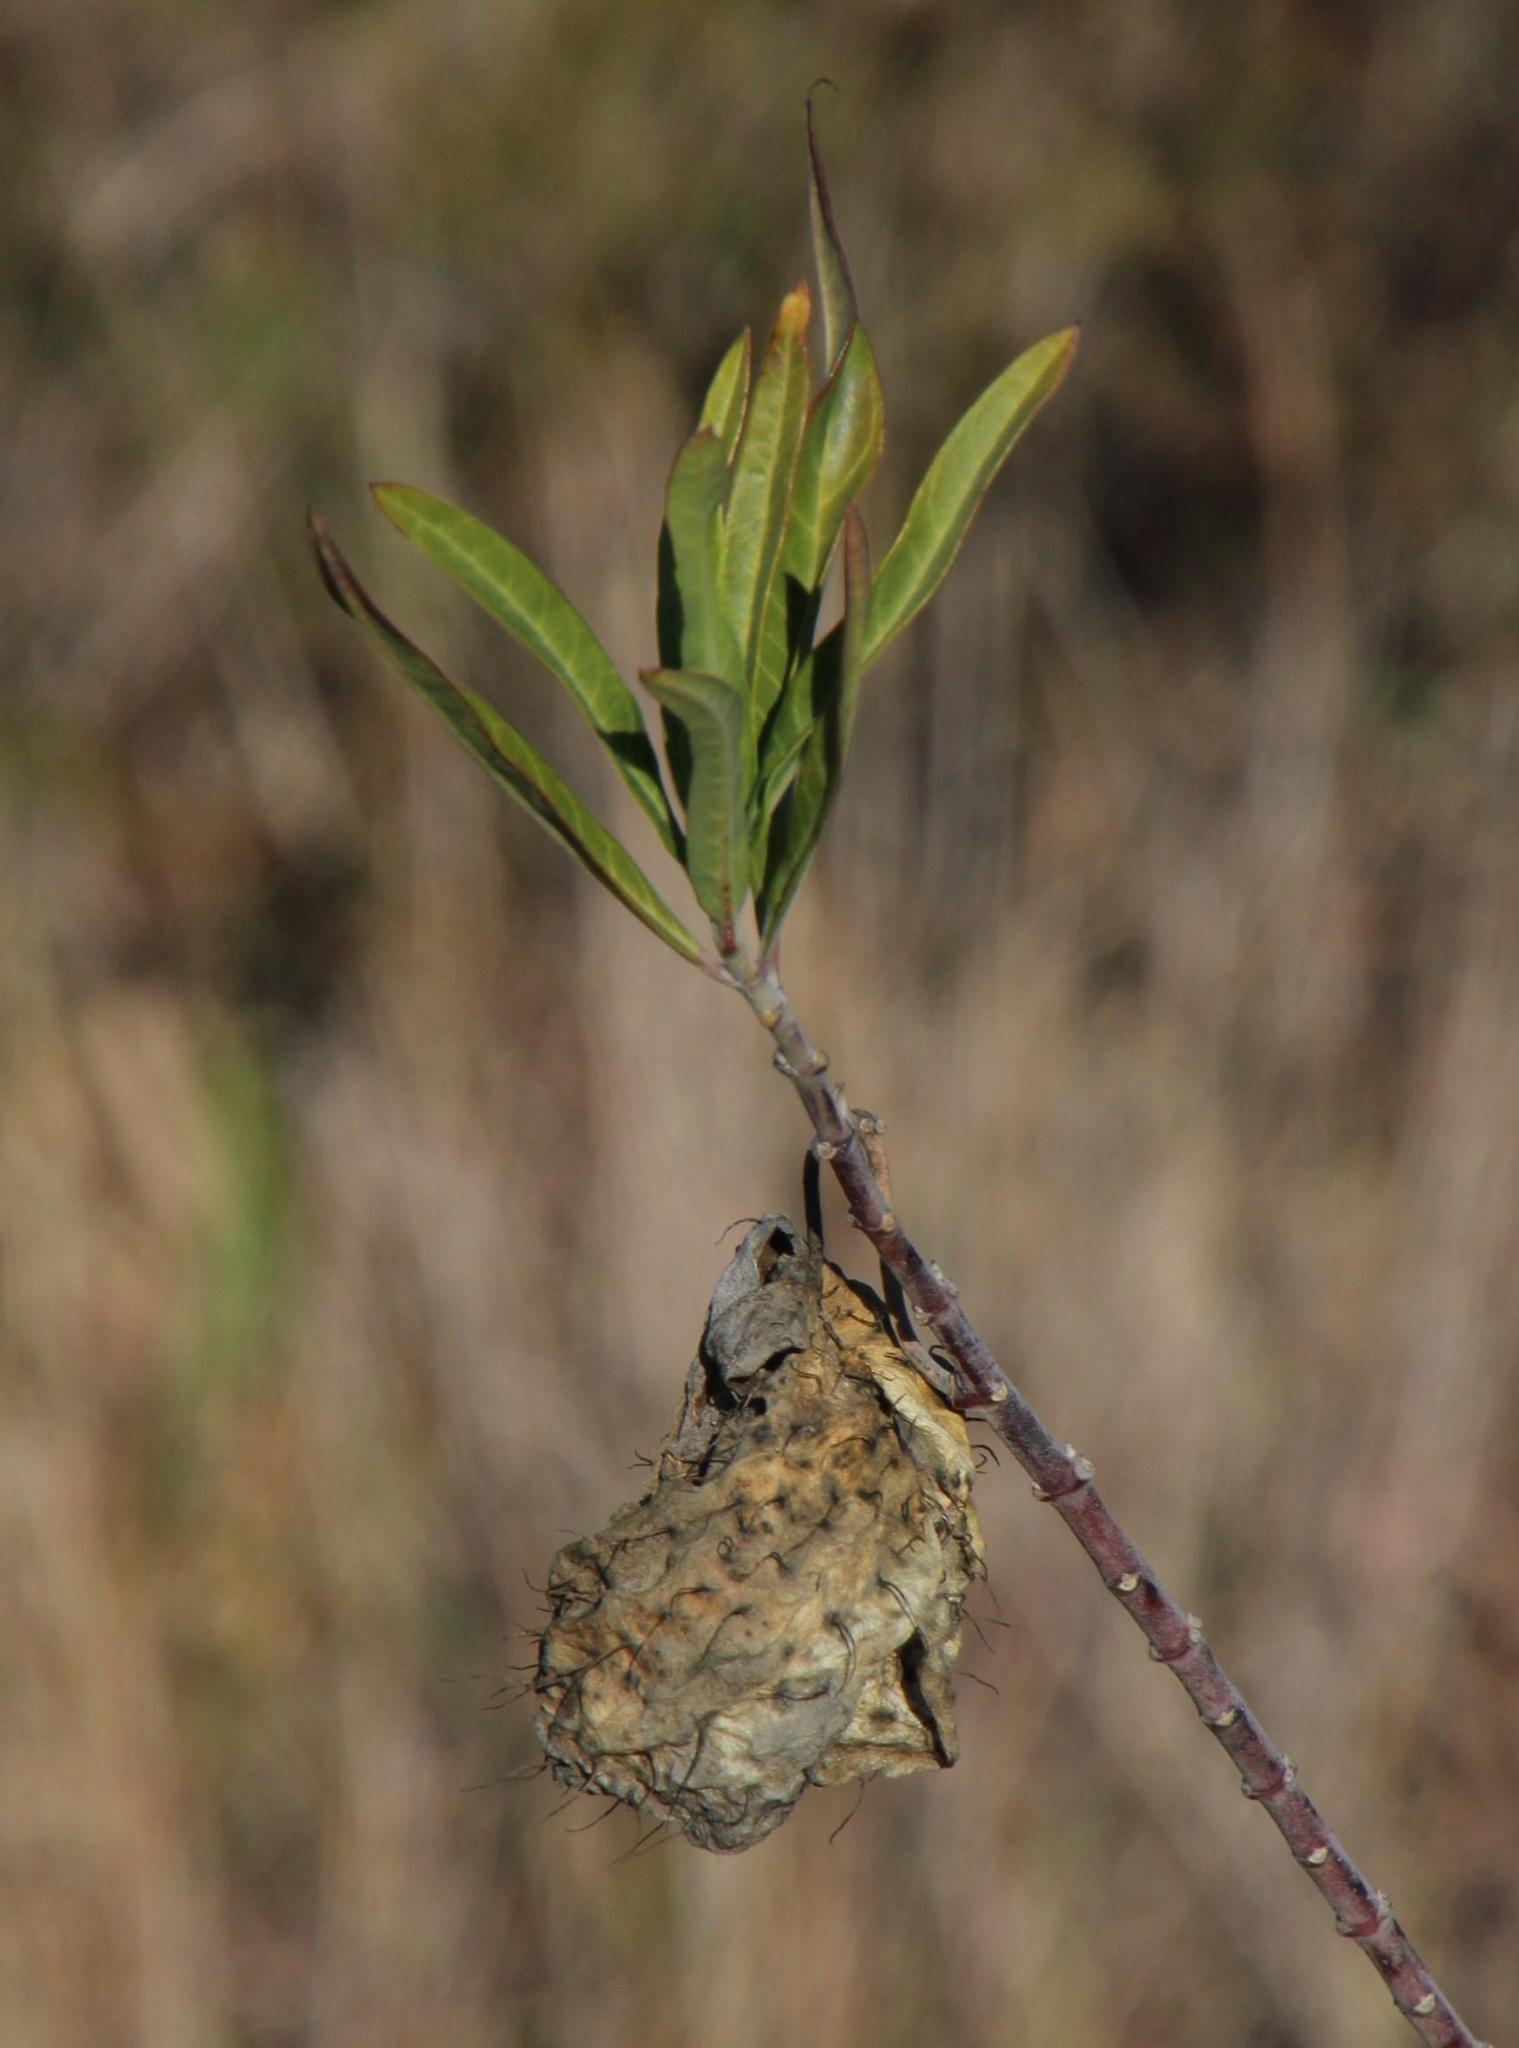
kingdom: Plantae
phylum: Tracheophyta
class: Magnoliopsida
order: Gentianales
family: Apocynaceae
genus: Gomphocarpus
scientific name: Gomphocarpus physocarpus
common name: Balloon cotton bush
